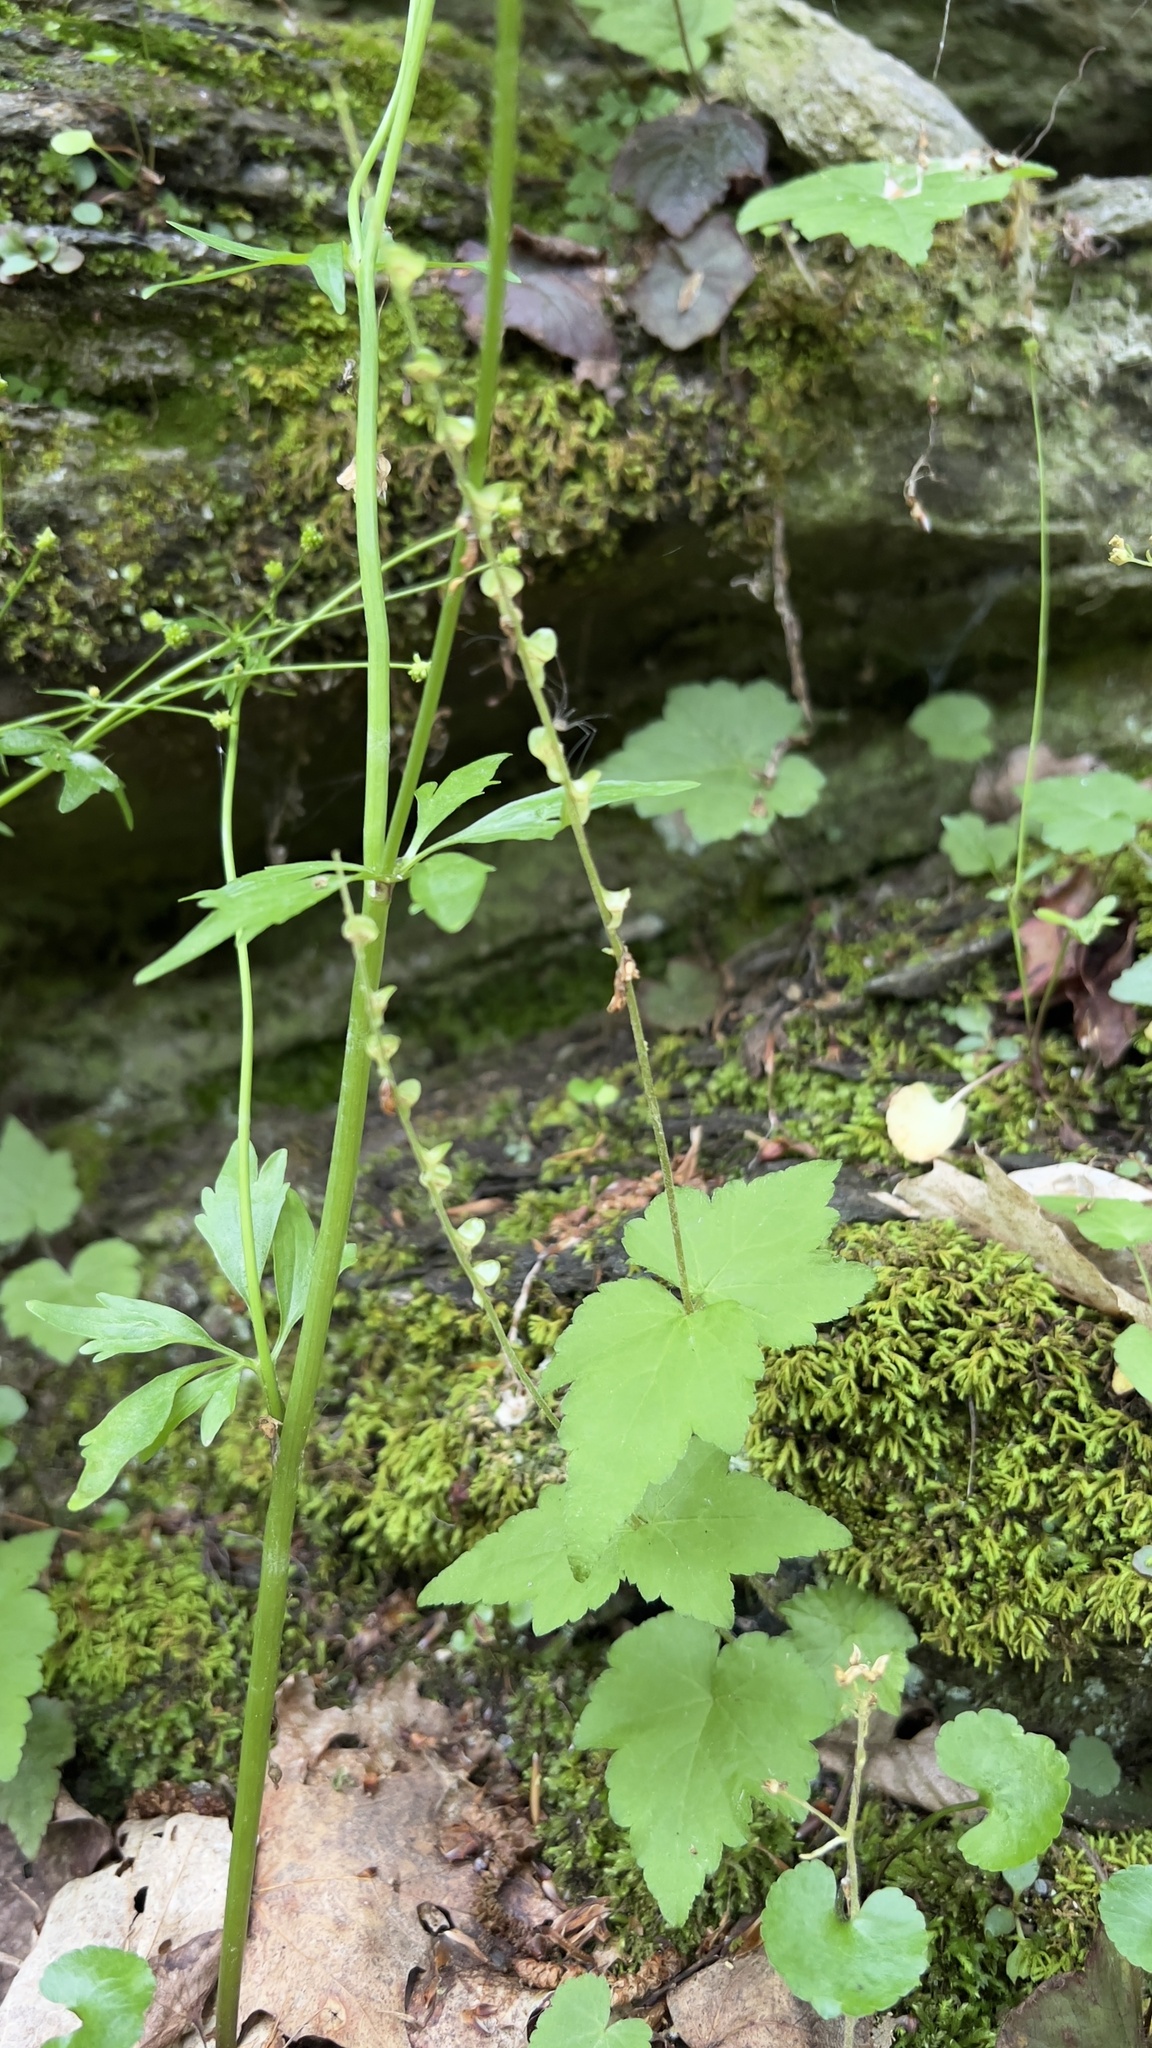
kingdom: Plantae
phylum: Tracheophyta
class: Magnoliopsida
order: Saxifragales
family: Saxifragaceae
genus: Mitella
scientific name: Mitella diphylla
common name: Coolwort
